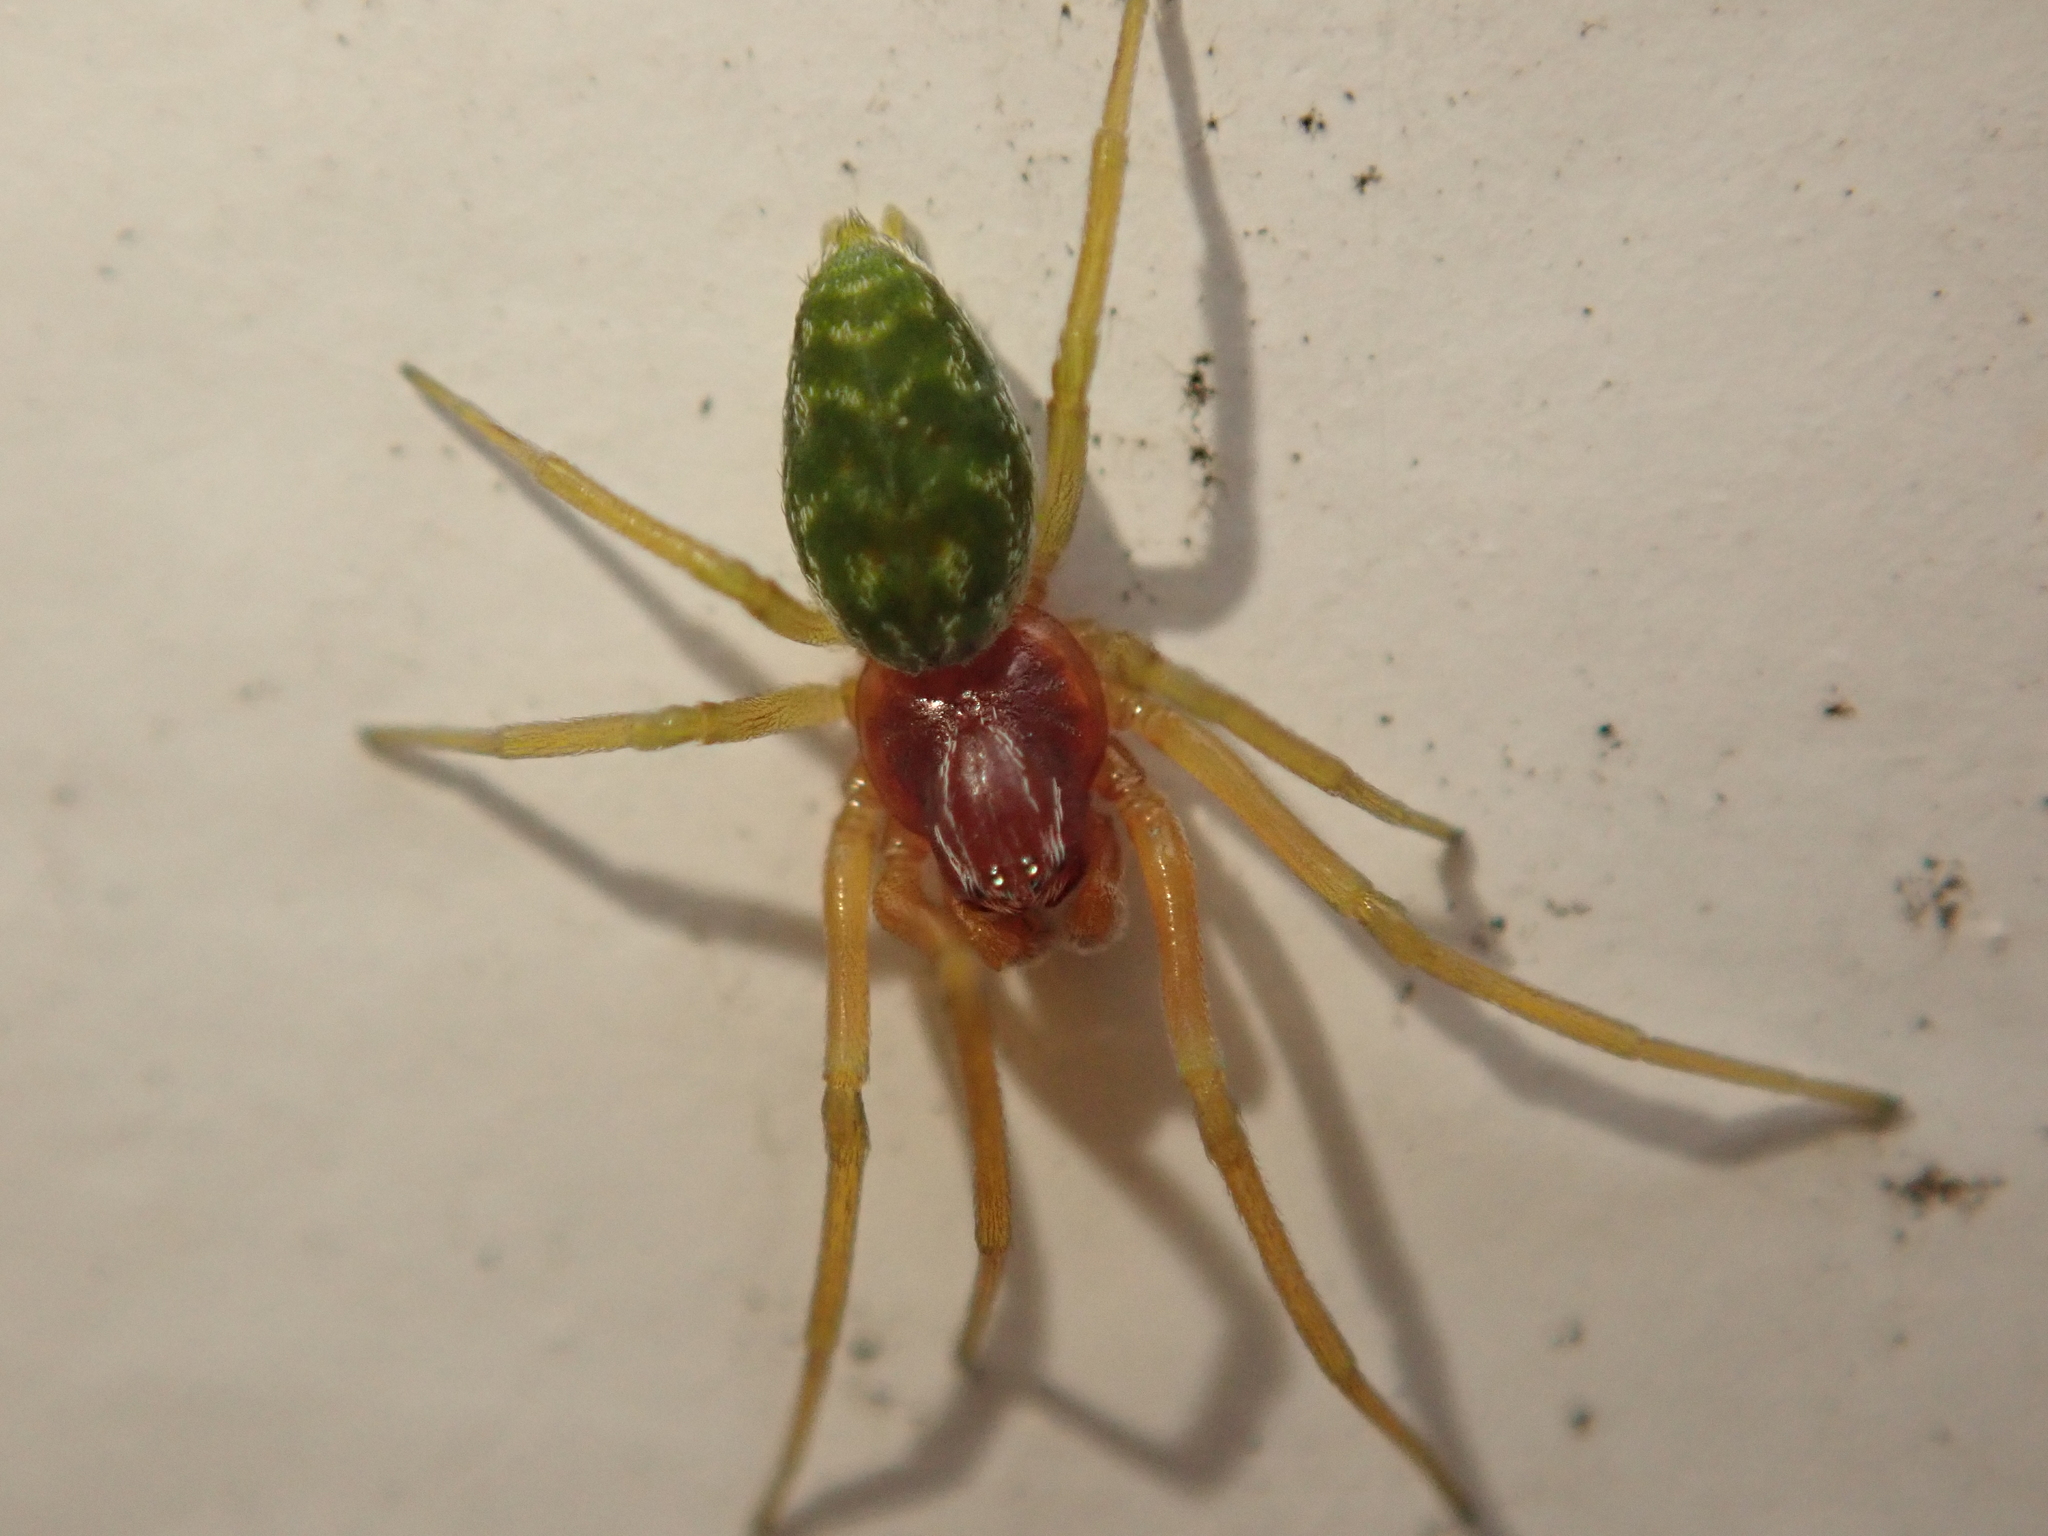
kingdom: Animalia
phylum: Arthropoda
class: Arachnida
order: Araneae
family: Dictynidae
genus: Nigma
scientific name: Nigma walckenaeri
